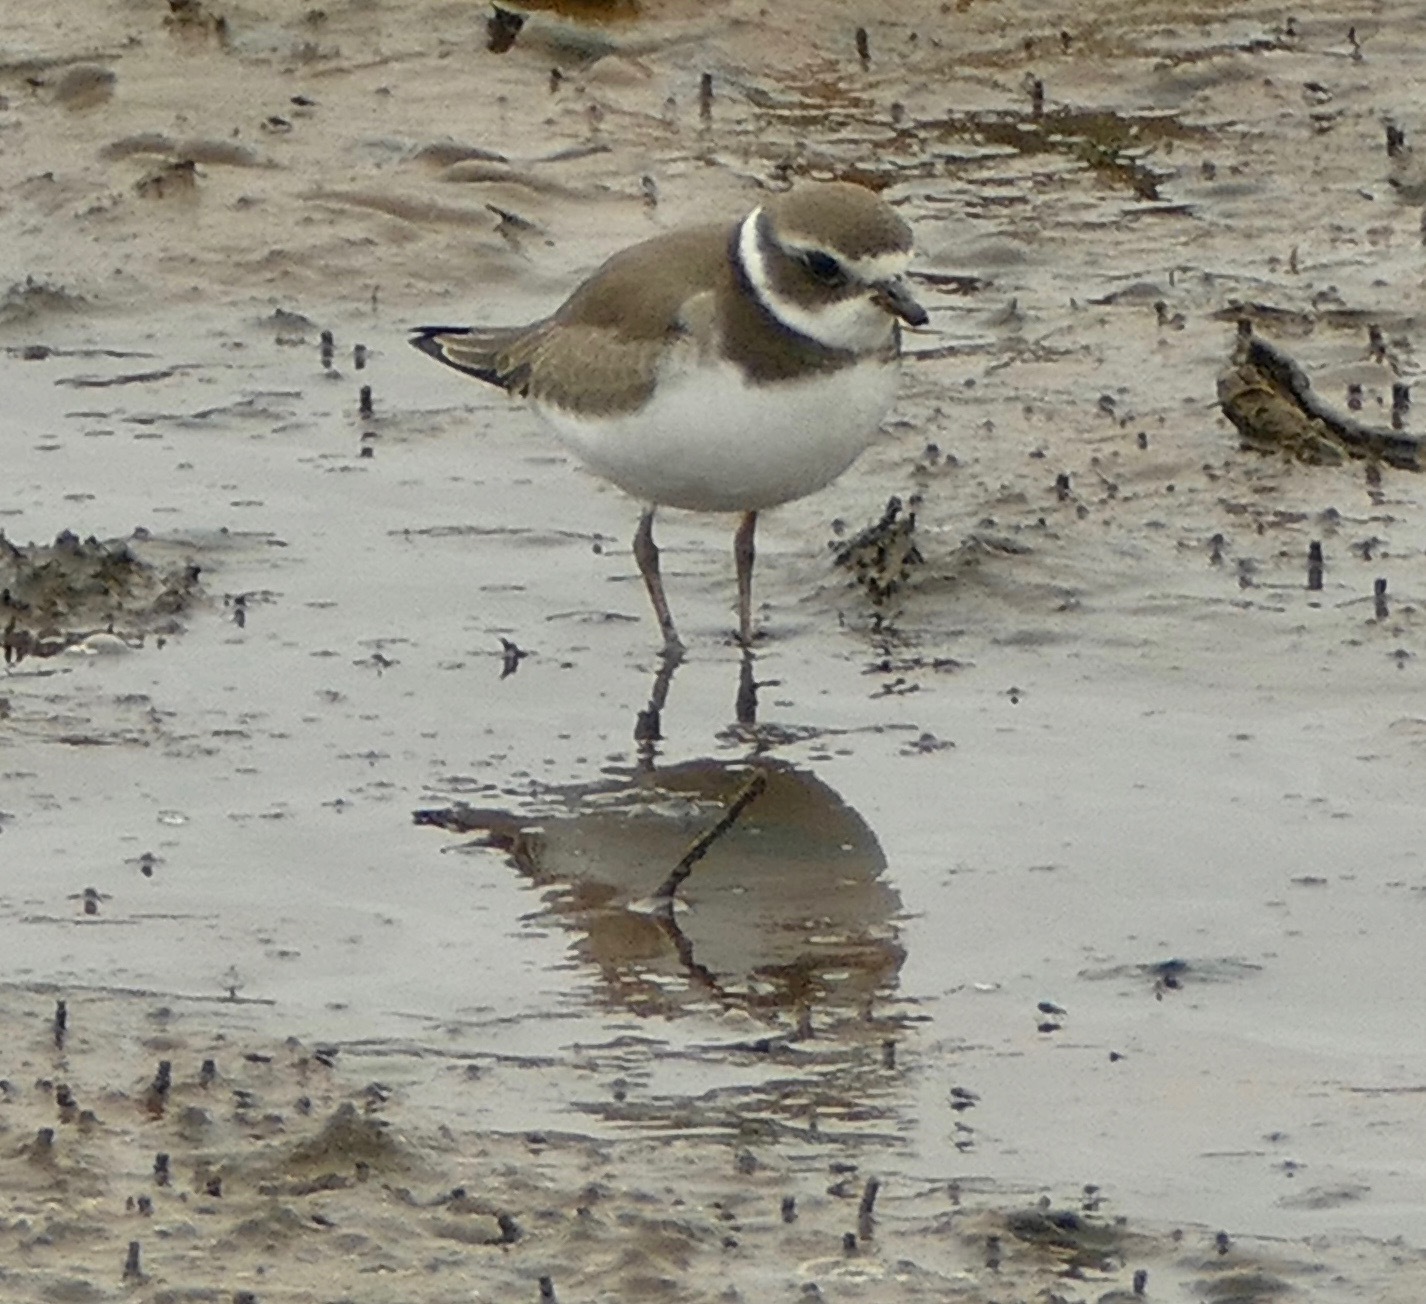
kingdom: Animalia
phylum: Chordata
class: Aves
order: Charadriiformes
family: Charadriidae
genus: Charadrius
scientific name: Charadrius semipalmatus
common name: Semipalmated plover
